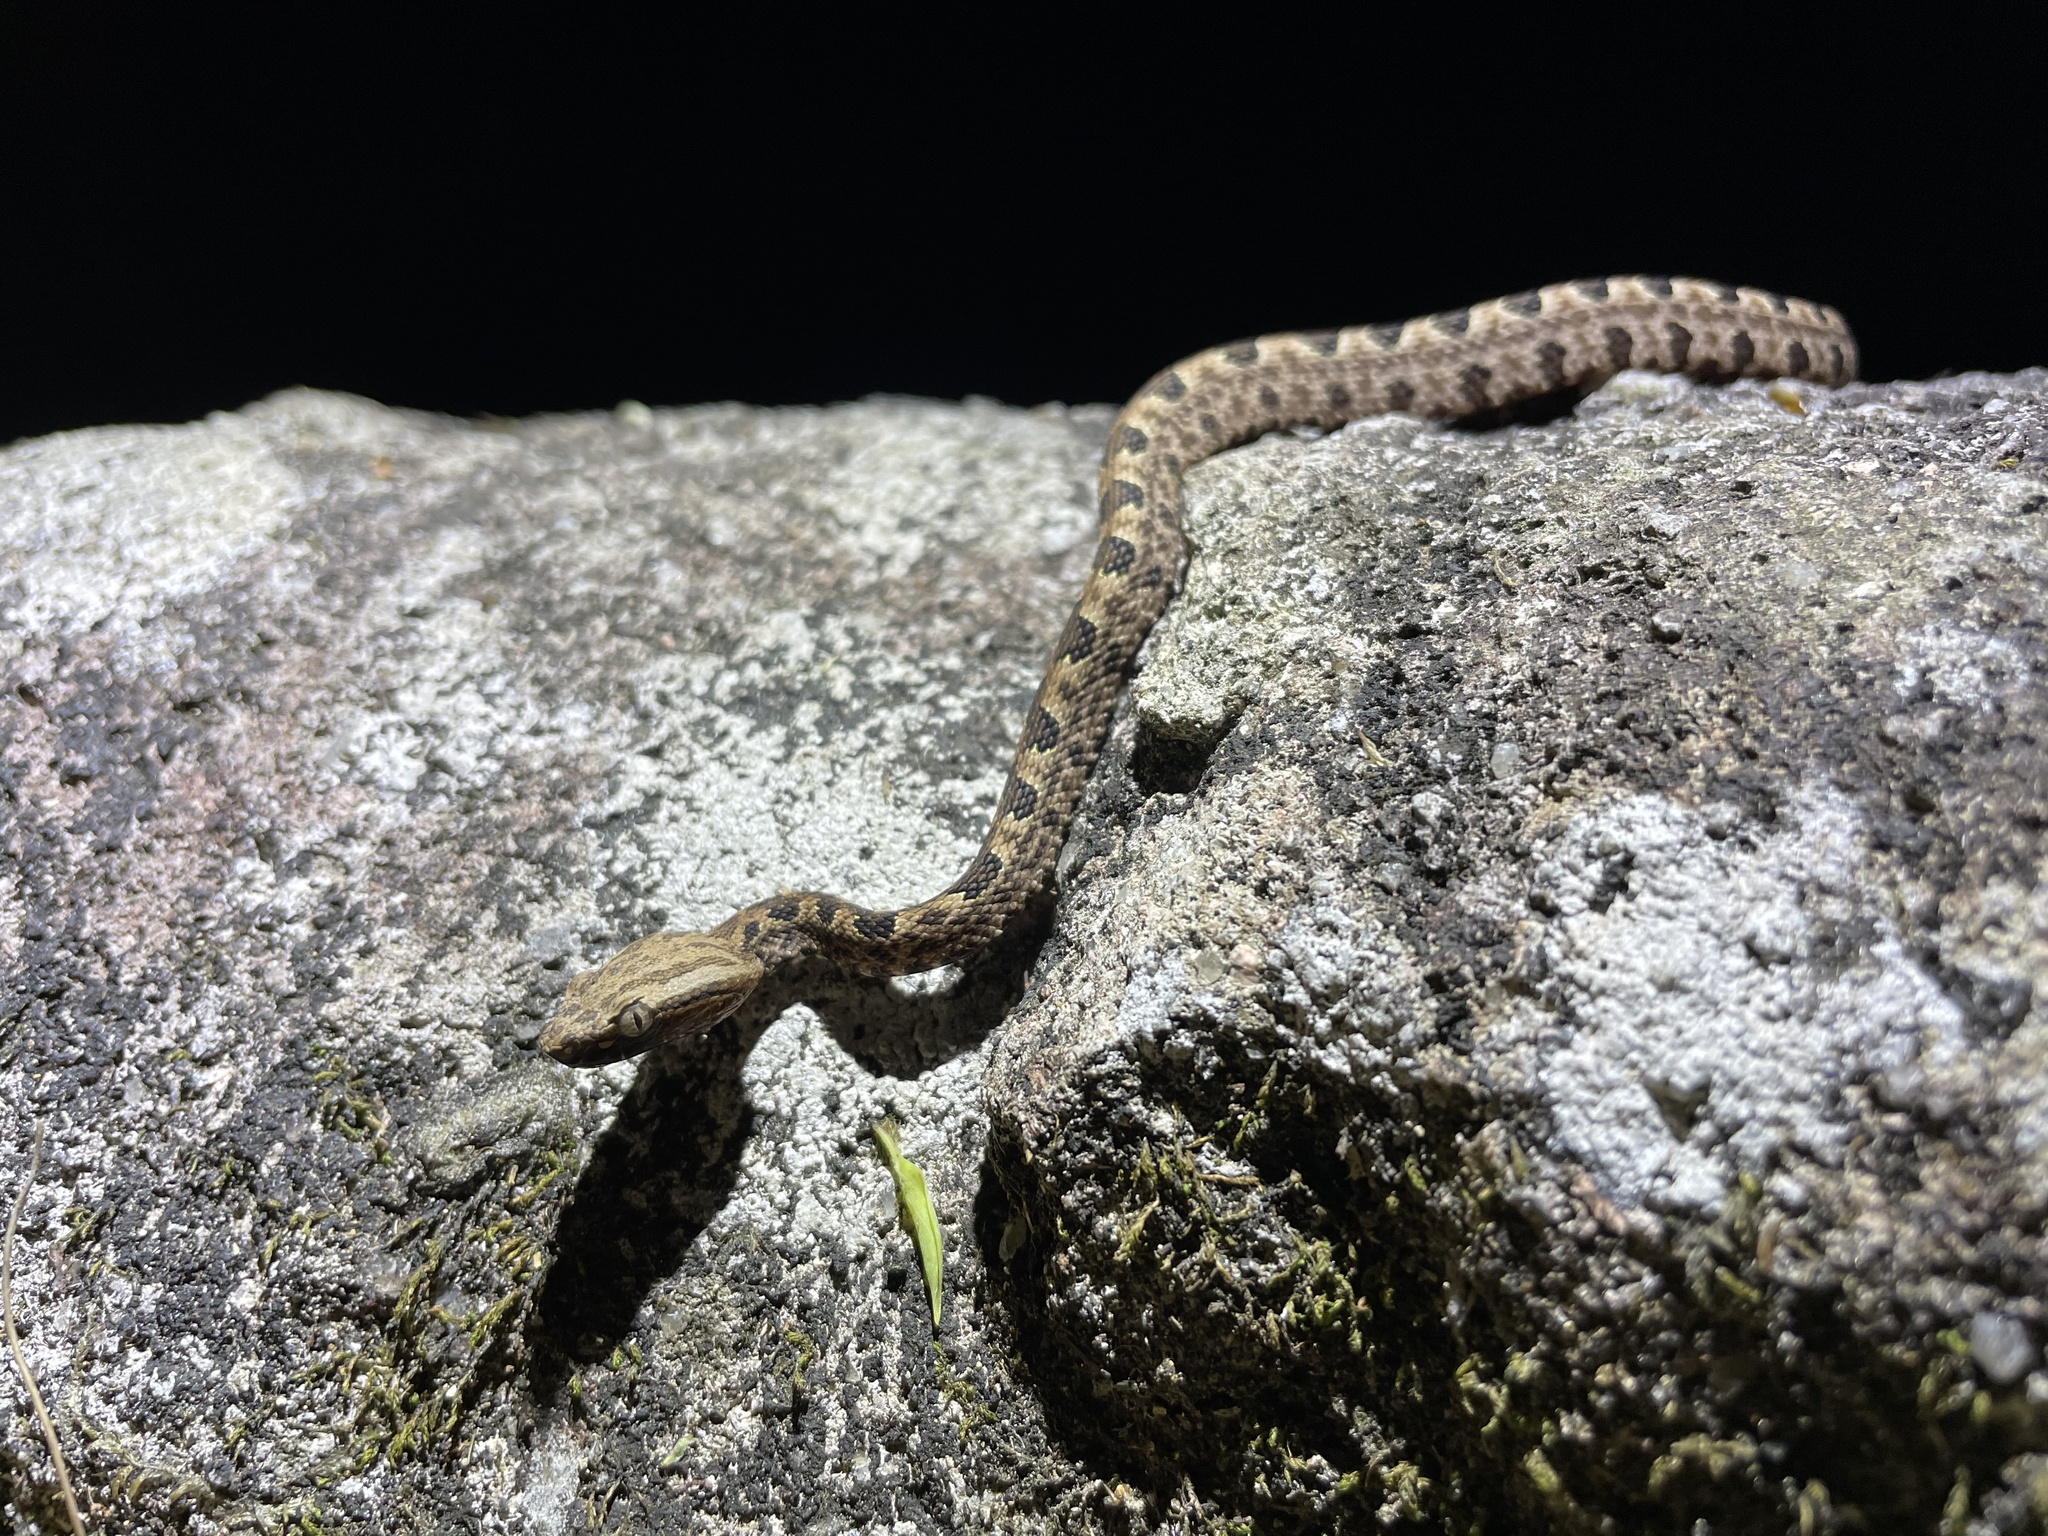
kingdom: Animalia
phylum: Chordata
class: Squamata
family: Viperidae
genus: Protobothrops
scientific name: Protobothrops mucrosquamatus
